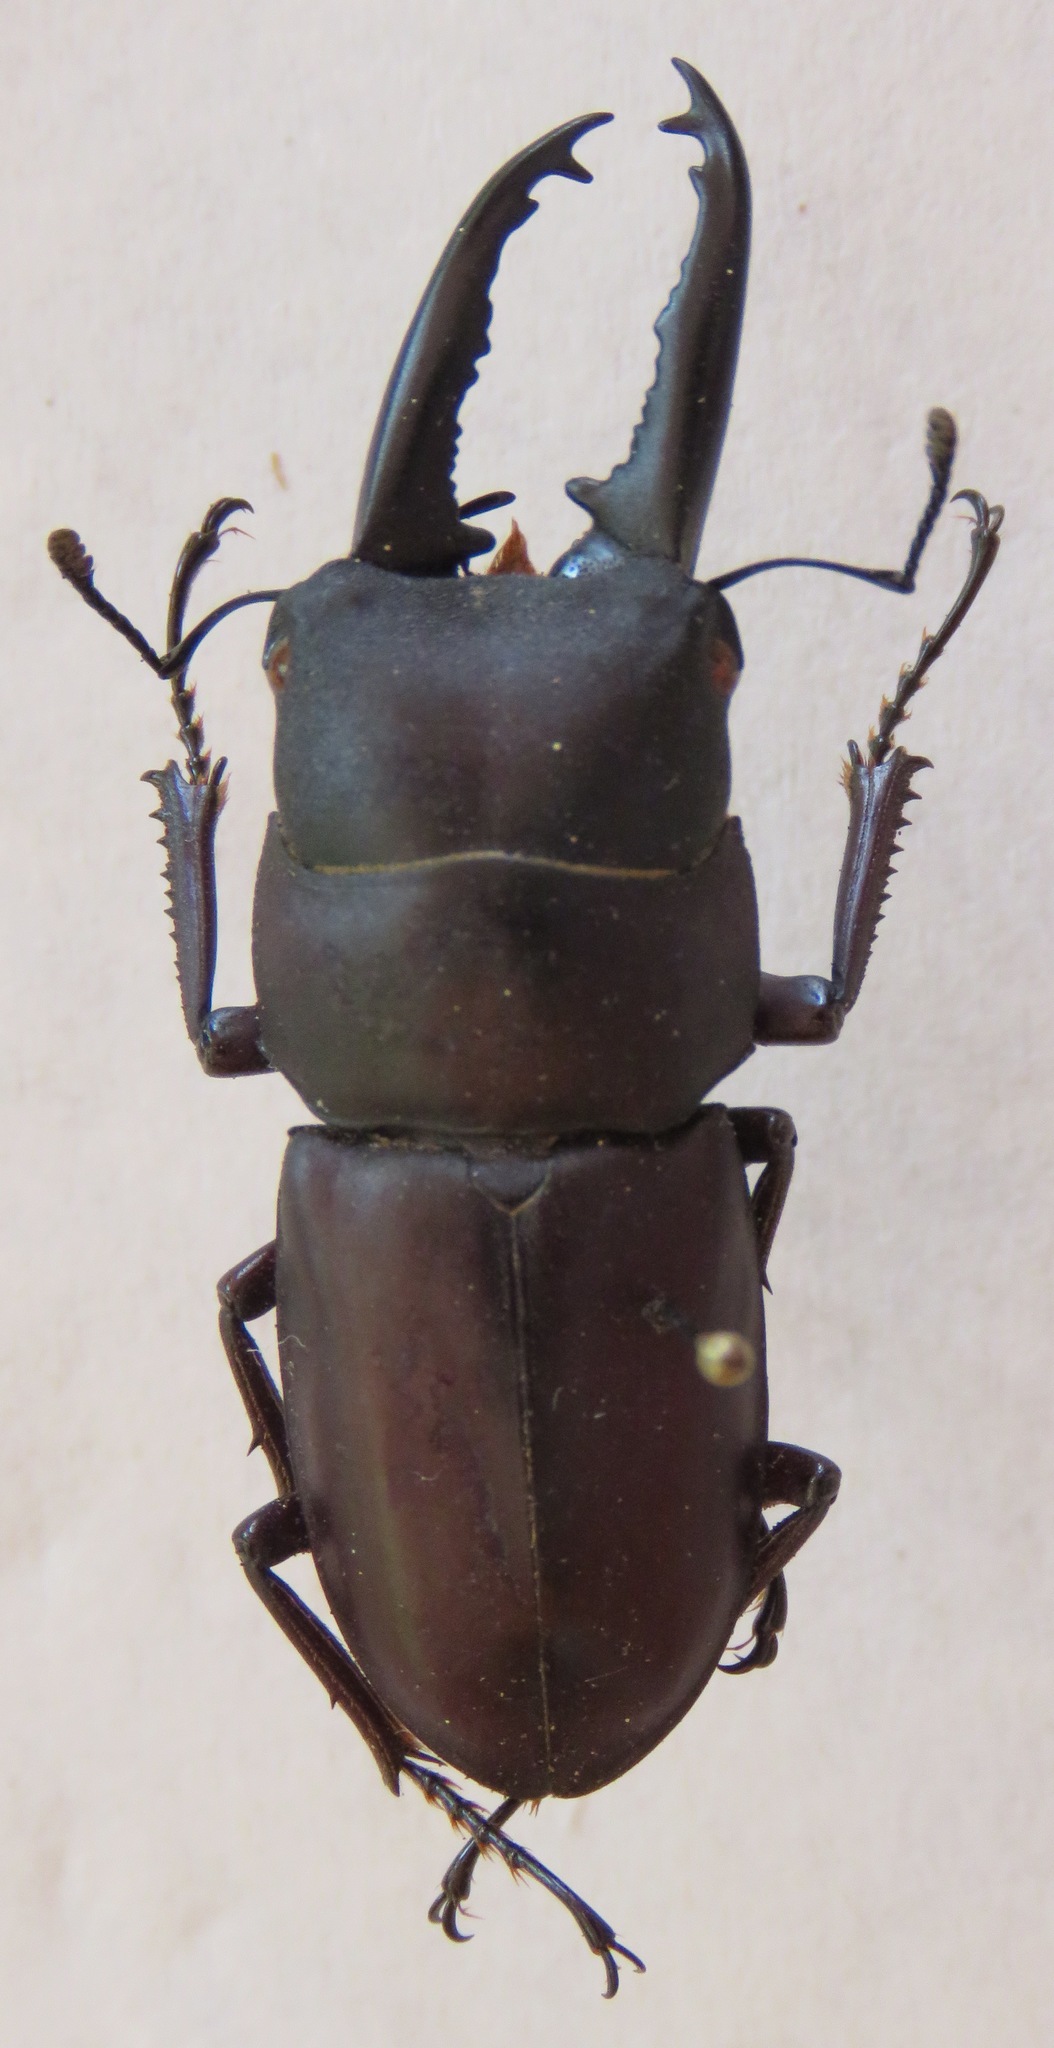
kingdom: Animalia
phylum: Arthropoda
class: Insecta
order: Coleoptera
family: Lucanidae
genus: Epidorcus
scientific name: Epidorcus denticulatus
